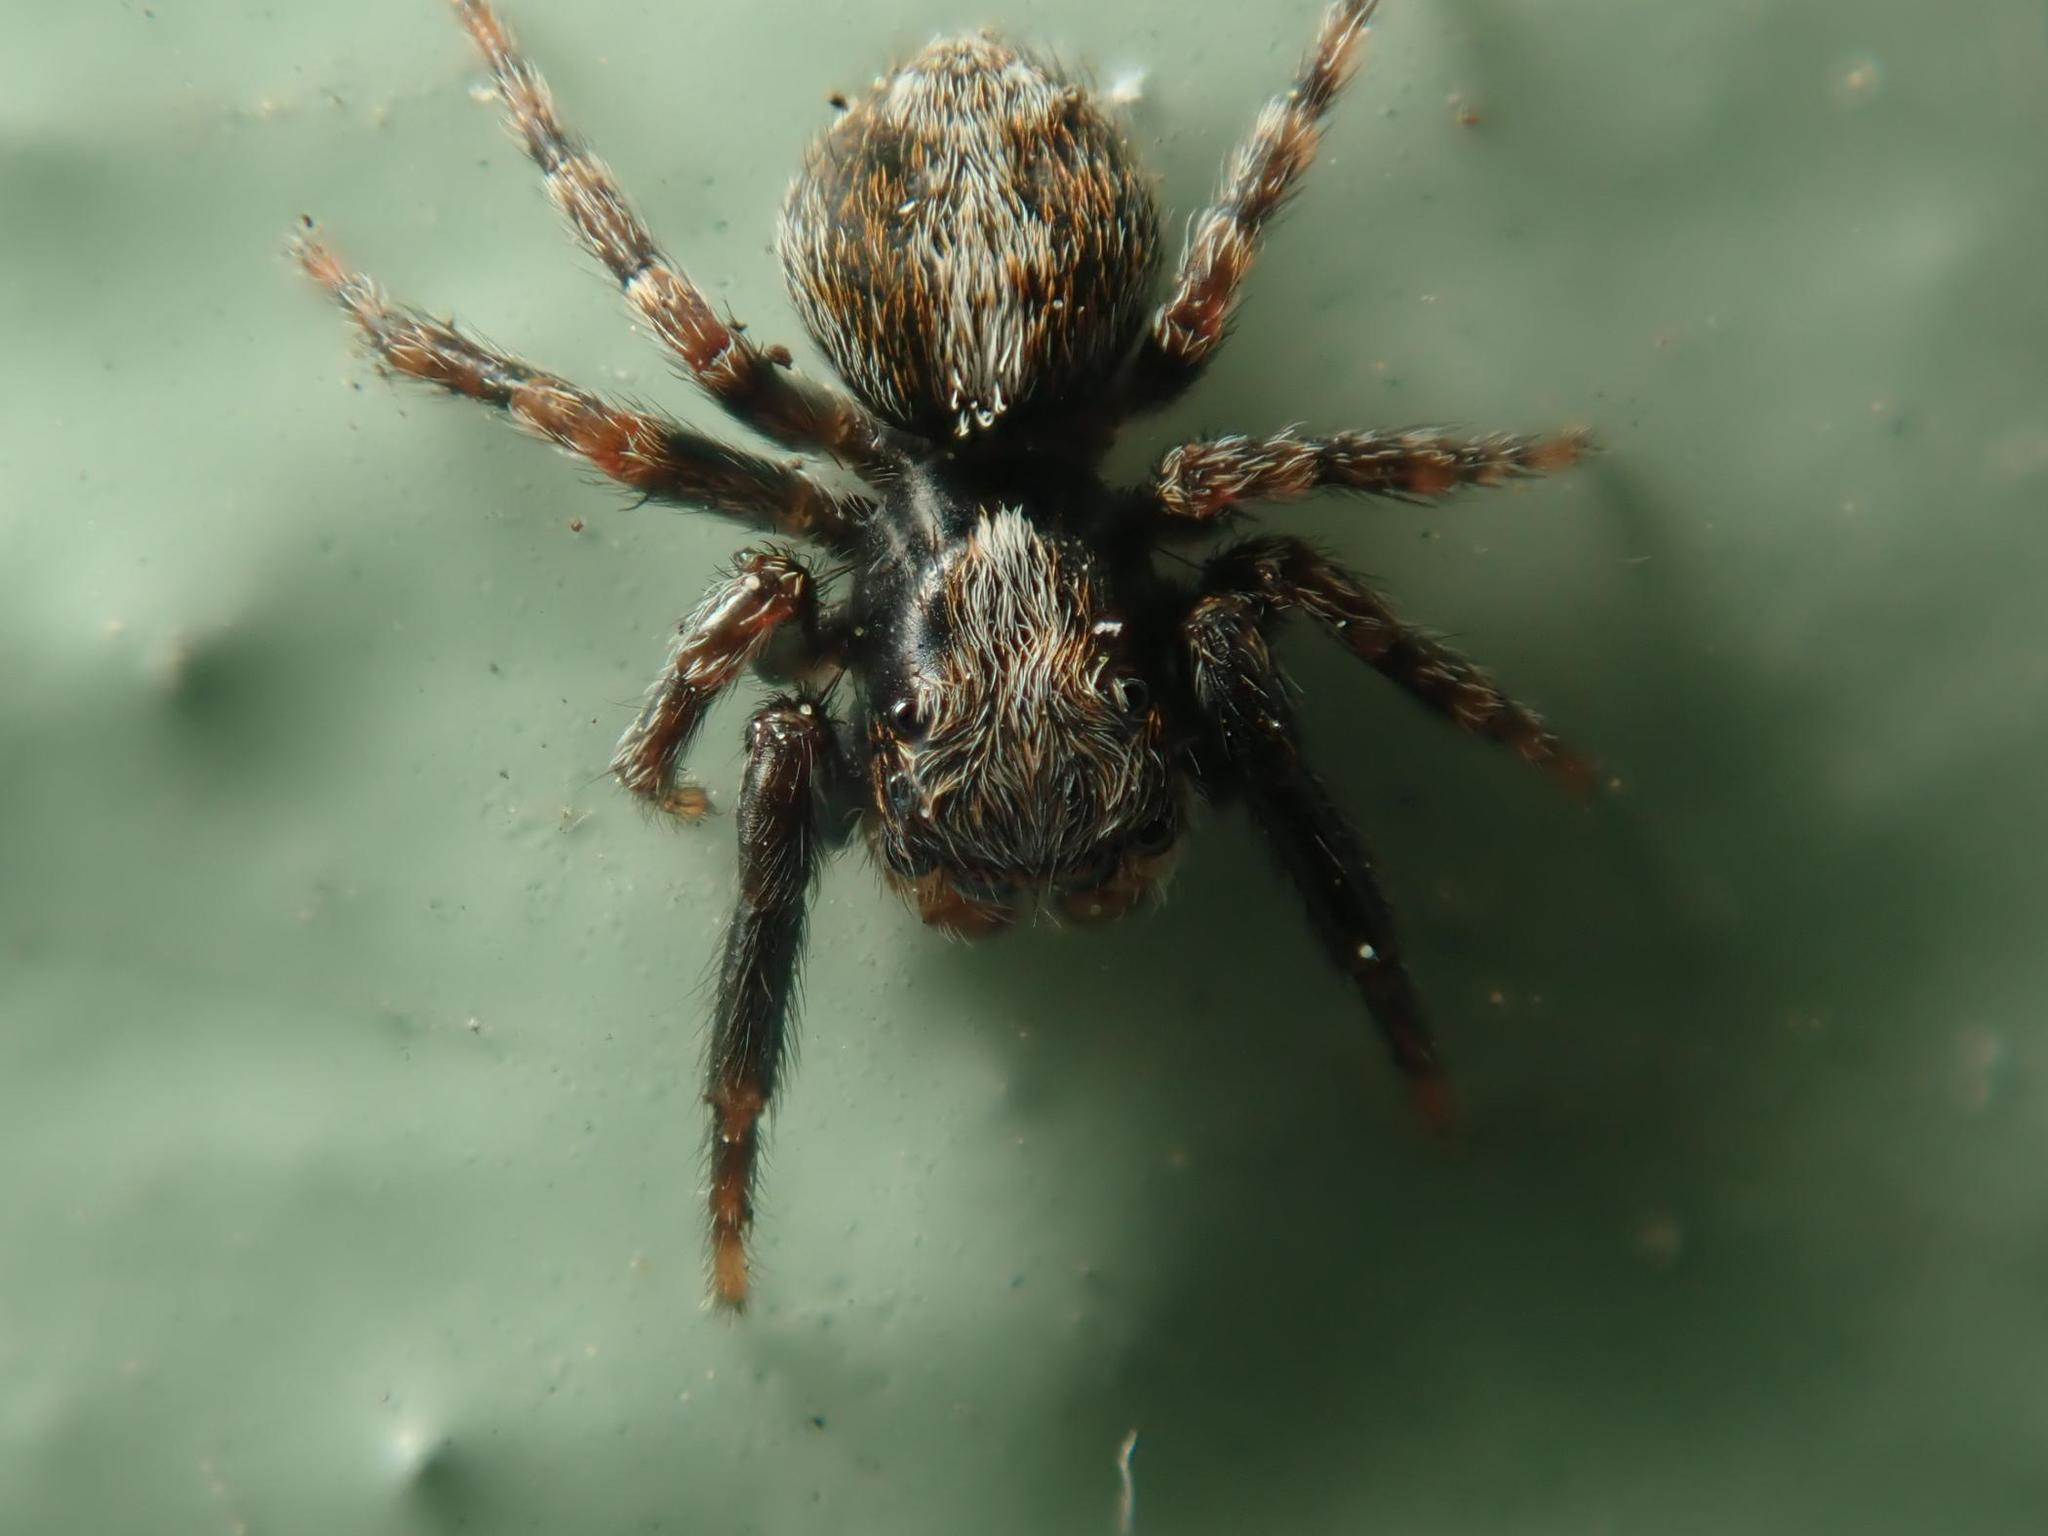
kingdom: Animalia
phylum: Arthropoda
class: Arachnida
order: Araneae
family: Salticidae
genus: Pseudeuophrys
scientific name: Pseudeuophrys lanigera
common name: Jumping spider
